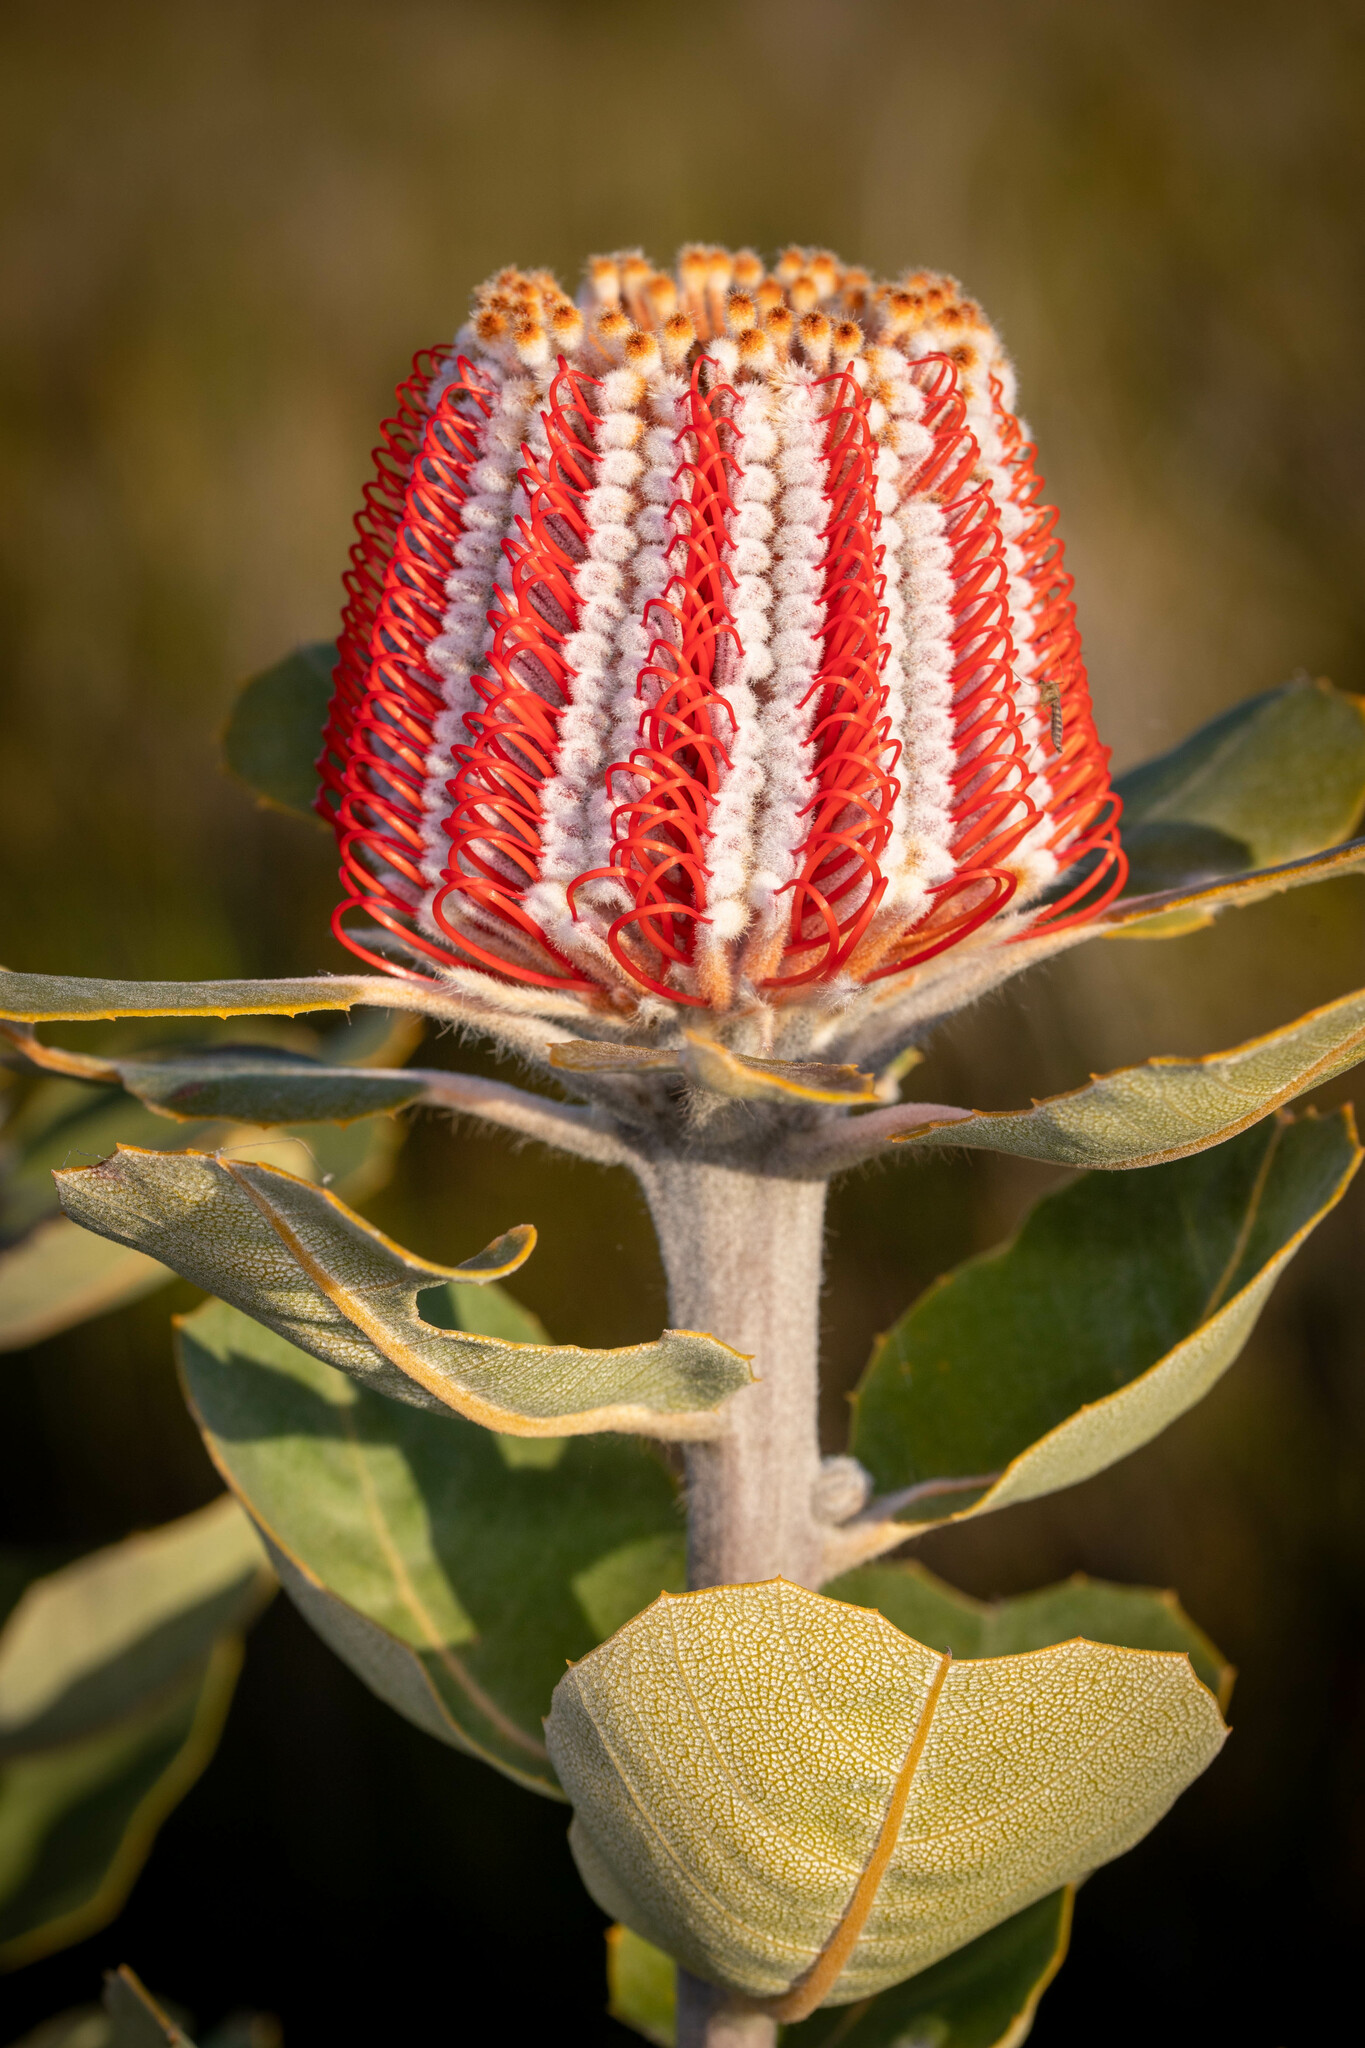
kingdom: Plantae
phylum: Tracheophyta
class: Magnoliopsida
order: Proteales
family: Proteaceae
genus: Banksia
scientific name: Banksia coccinea
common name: Scarlet banksia
